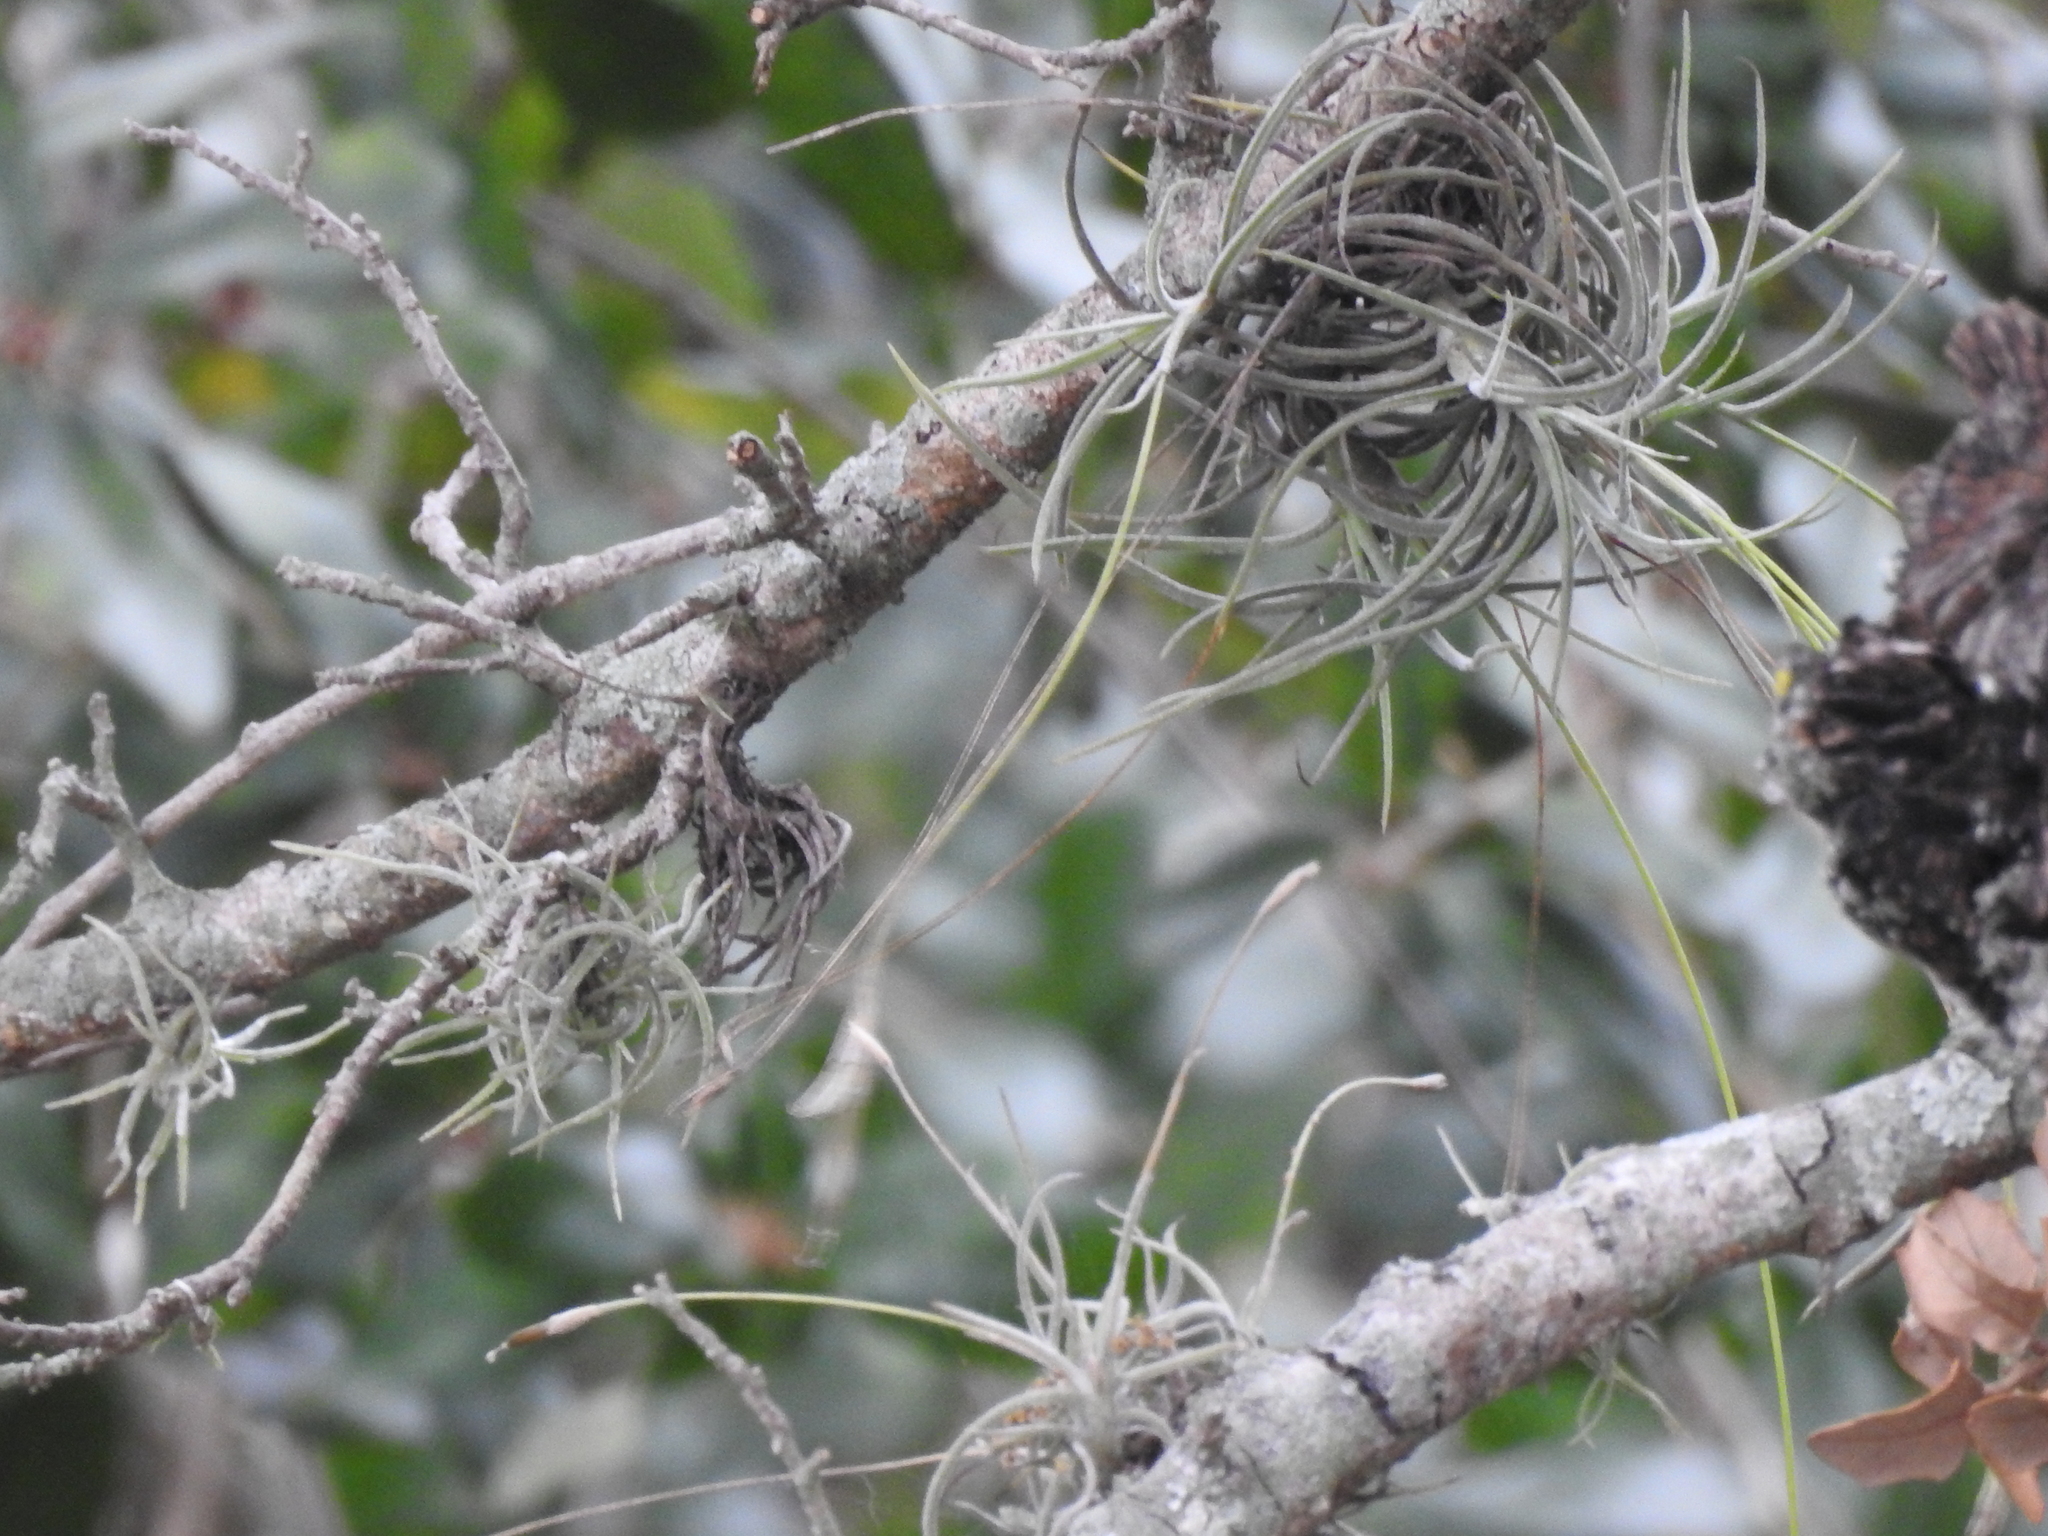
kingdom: Plantae
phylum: Tracheophyta
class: Liliopsida
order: Poales
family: Bromeliaceae
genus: Tillandsia
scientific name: Tillandsia recurvata
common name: Small ballmoss
